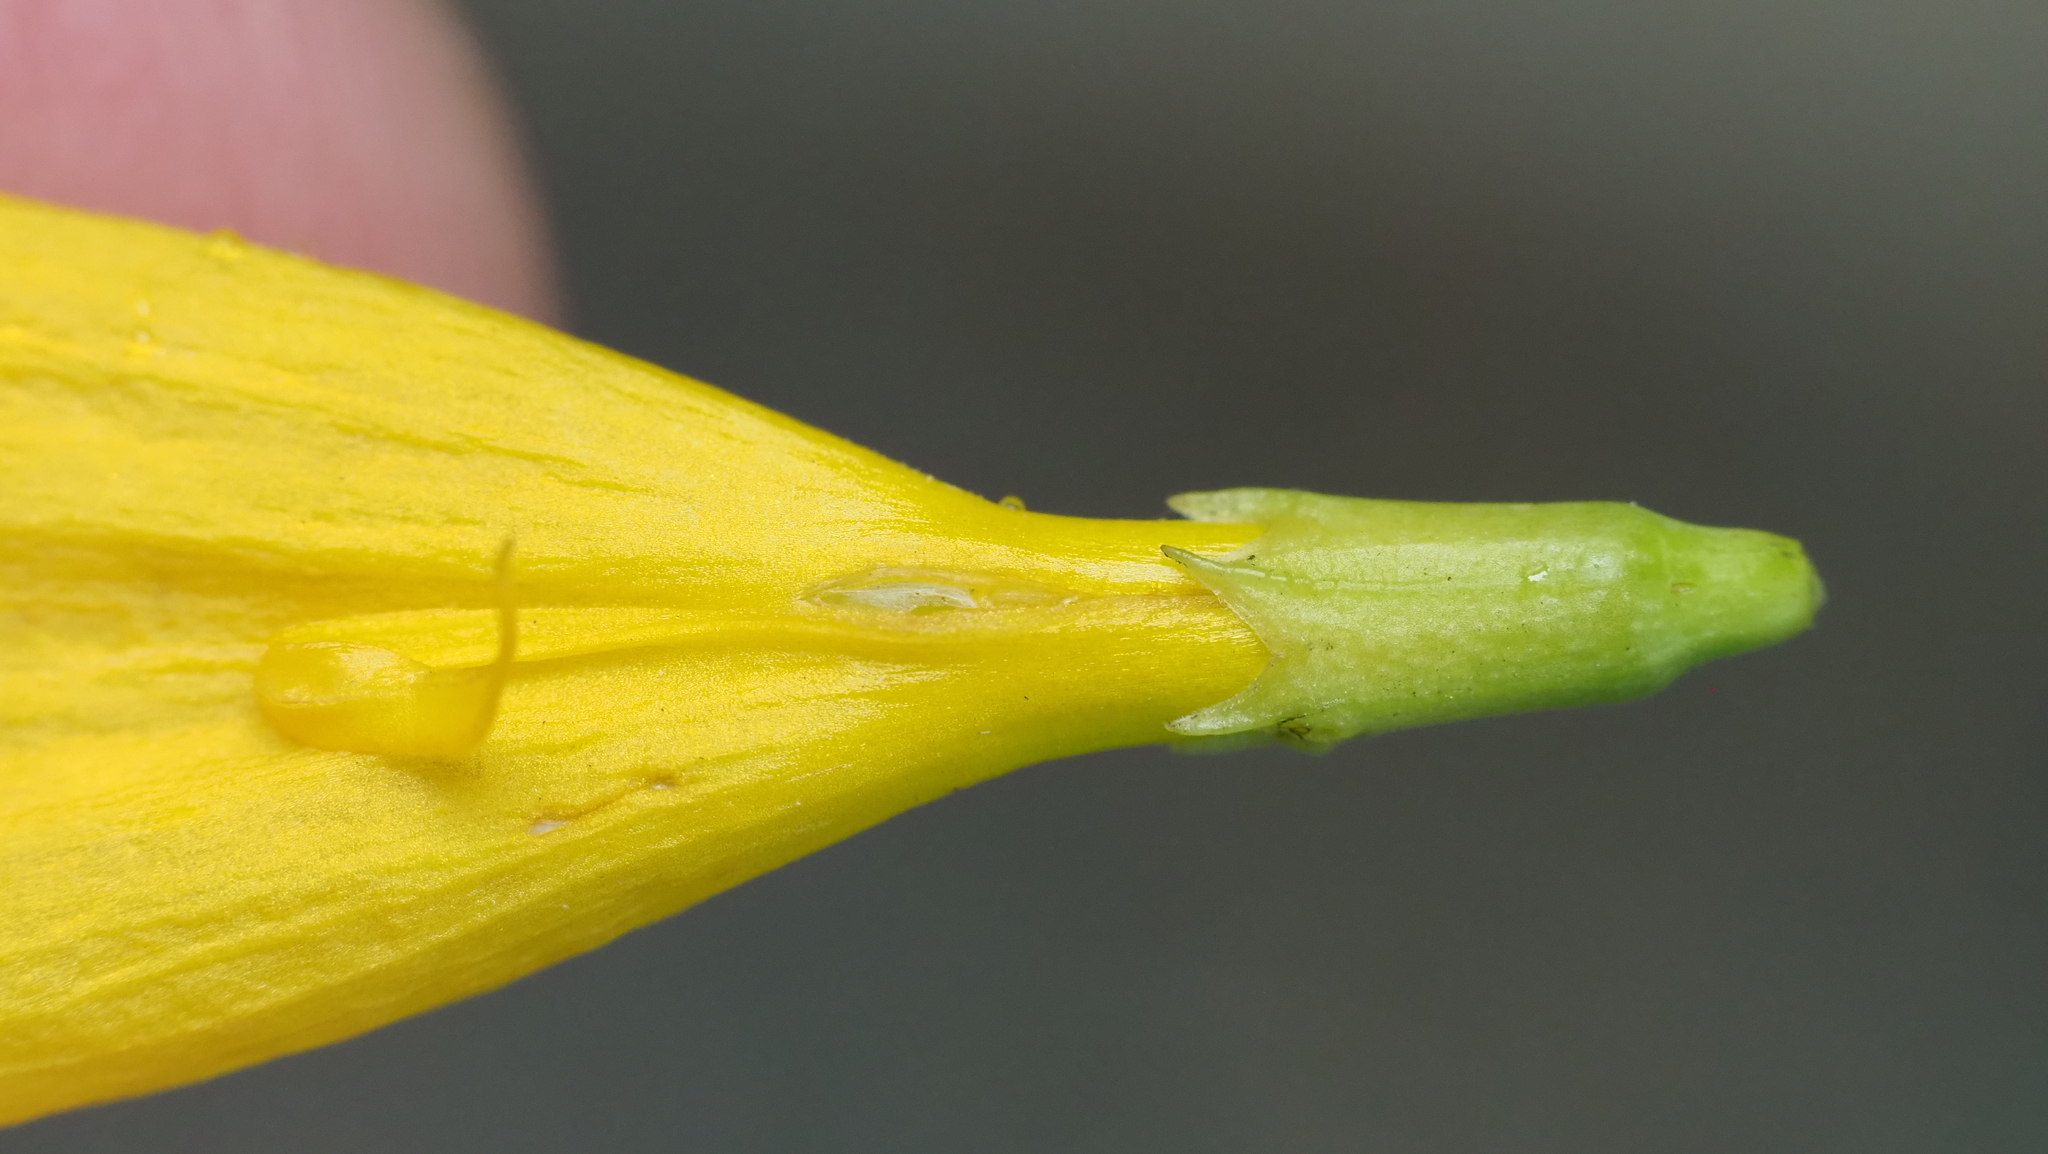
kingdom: Animalia
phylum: Arthropoda
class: Insecta
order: Hymenoptera
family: Apidae
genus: Xylocopa
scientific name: Xylocopa mordax
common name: Antillean carpenter bee
